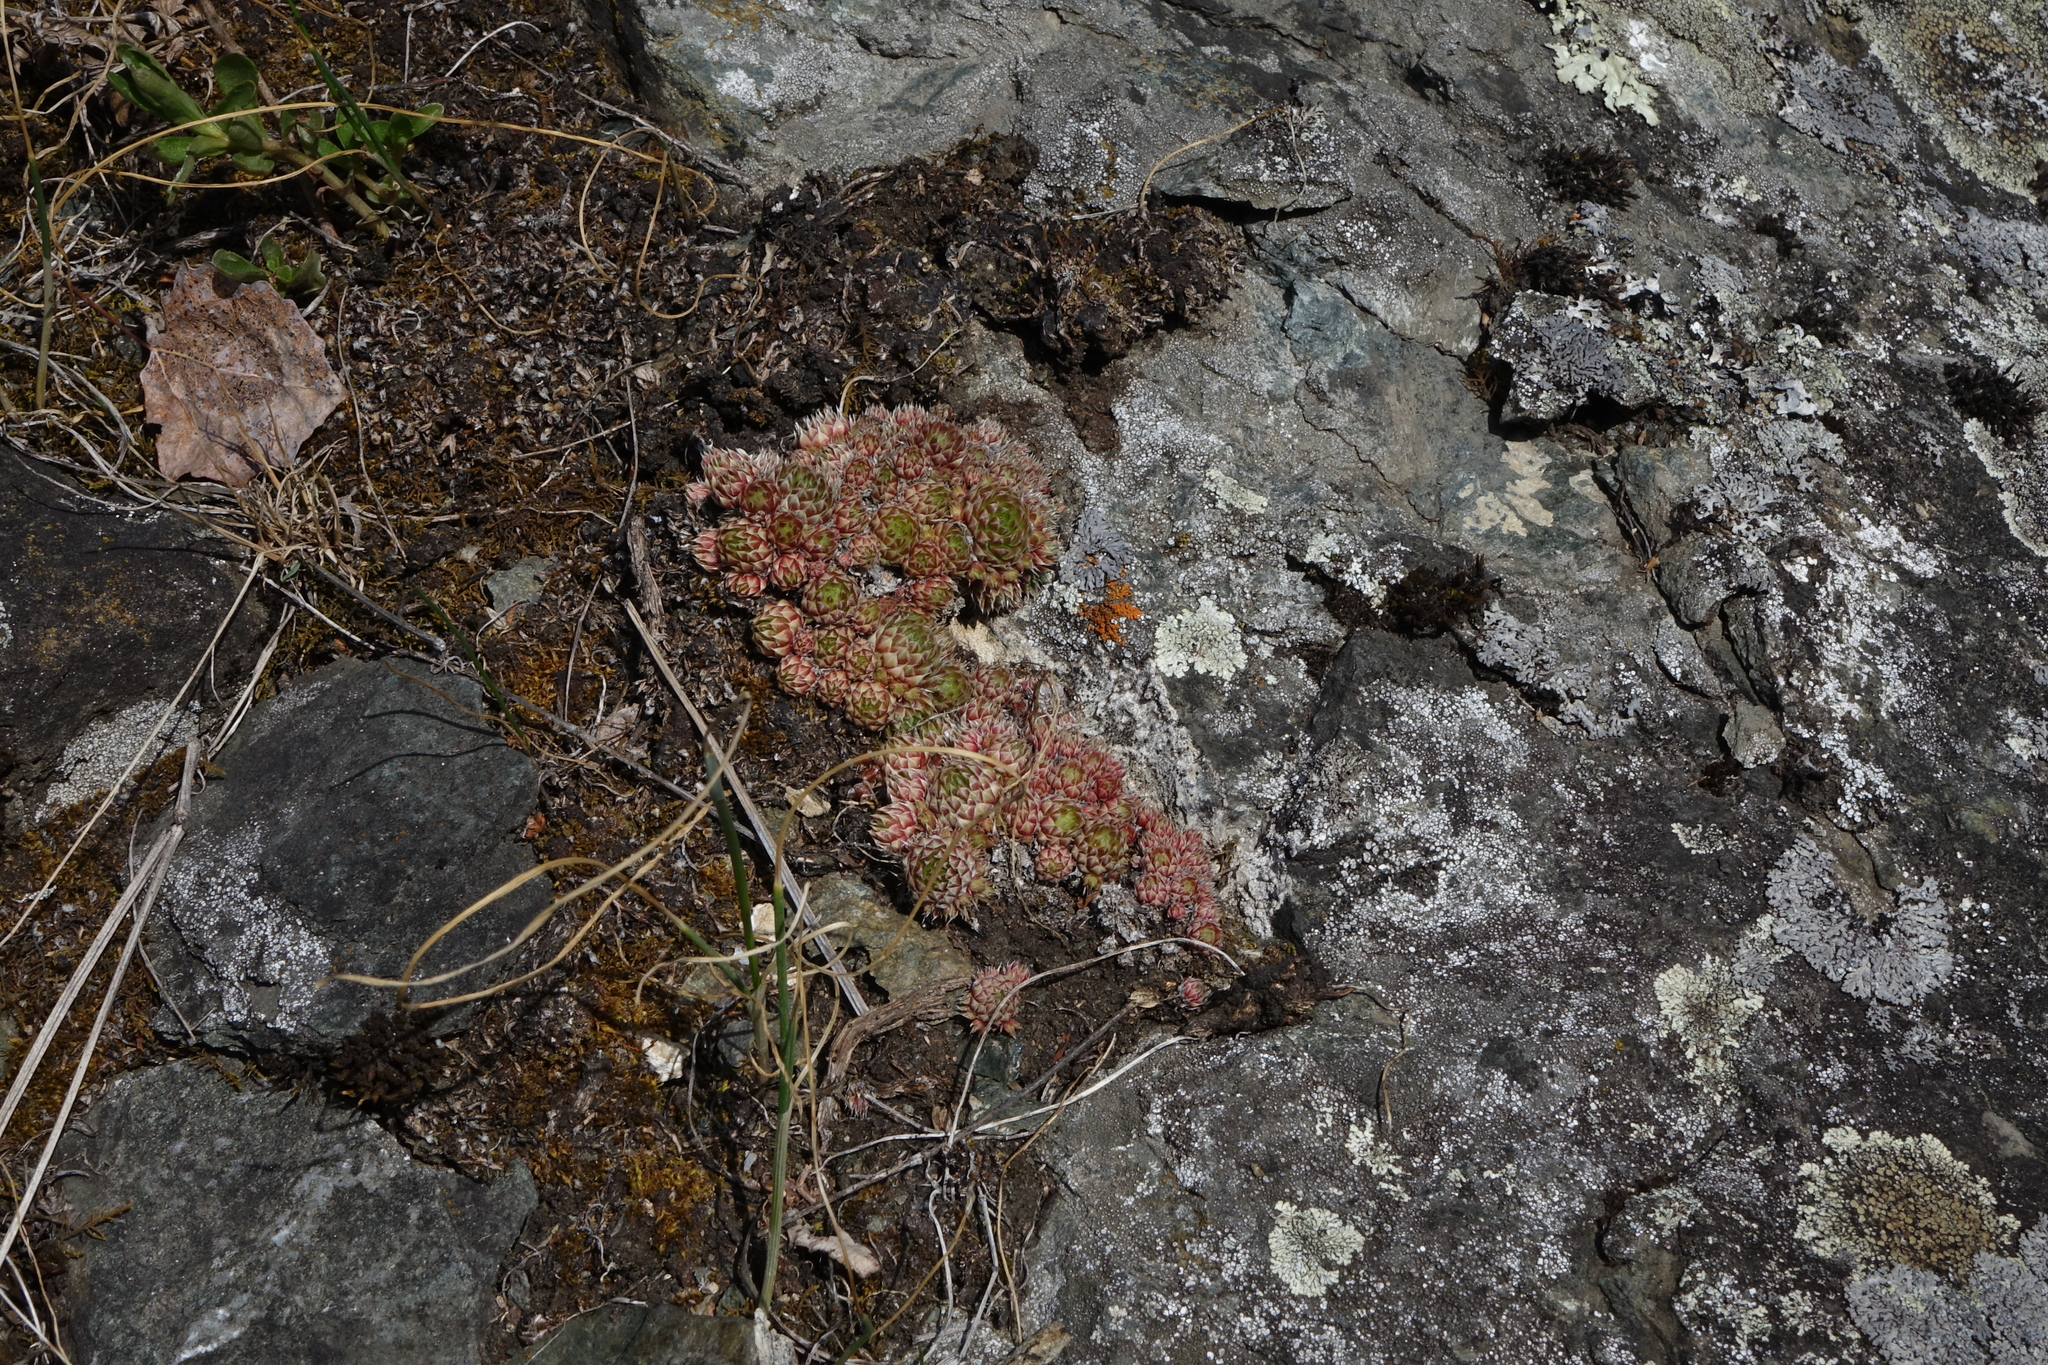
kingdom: Plantae
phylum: Tracheophyta
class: Magnoliopsida
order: Saxifragales
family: Crassulaceae
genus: Orostachys
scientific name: Orostachys spinosa
